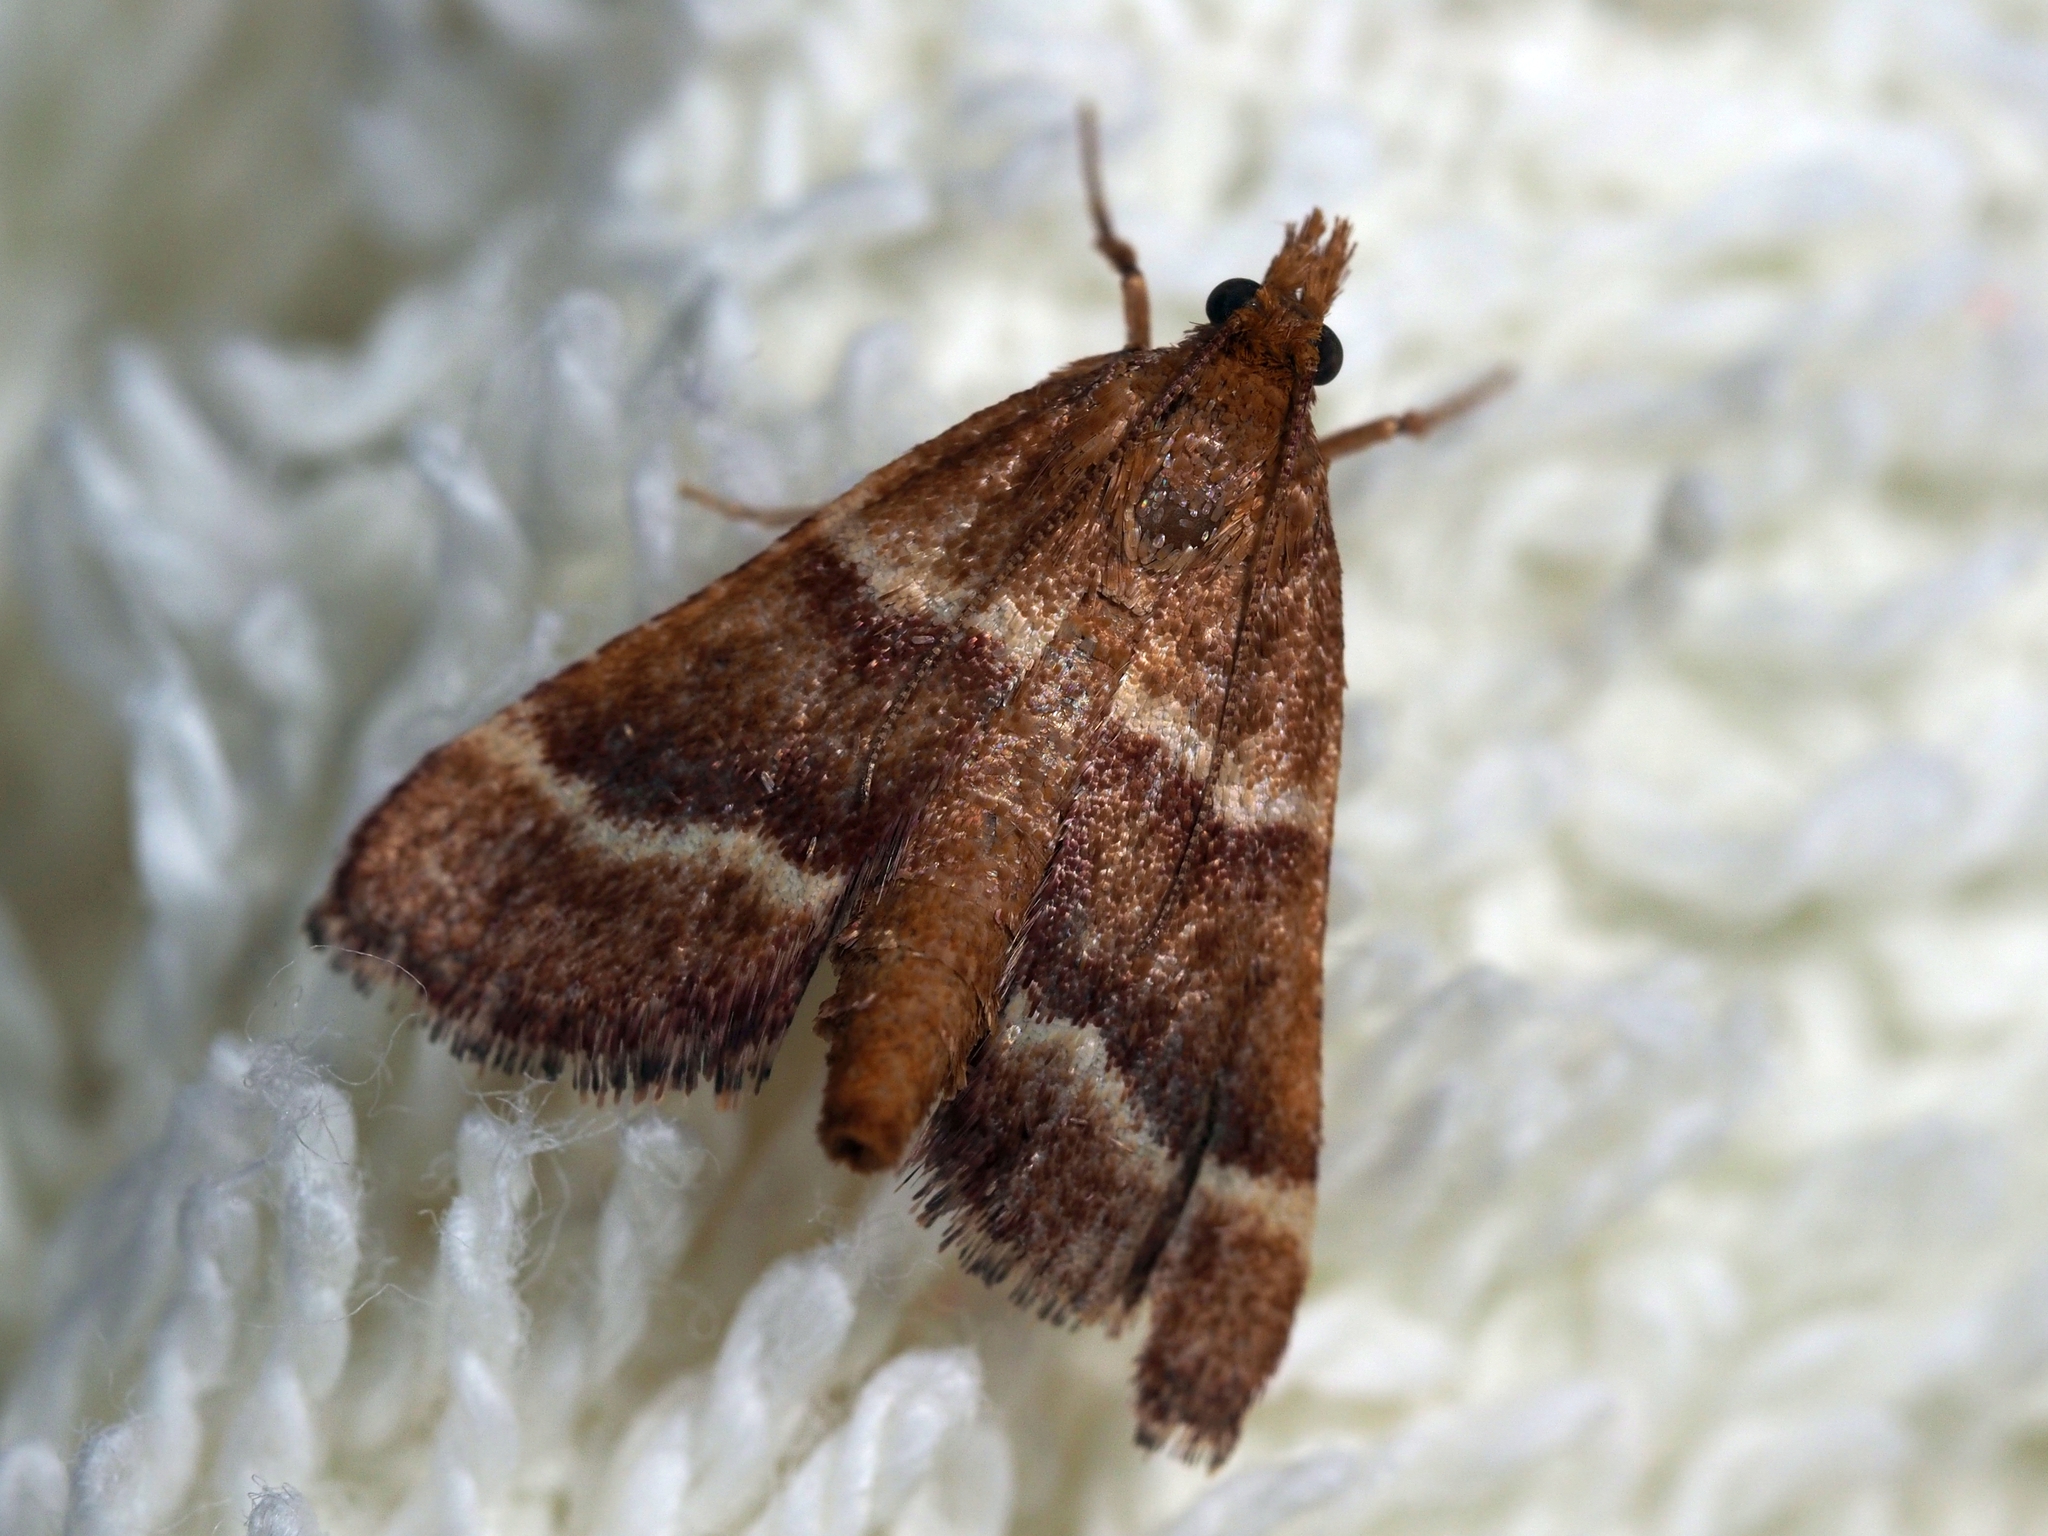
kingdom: Animalia
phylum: Arthropoda
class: Insecta
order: Lepidoptera
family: Pyralidae
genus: Stemmatophora
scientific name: Stemmatophora combustalis
